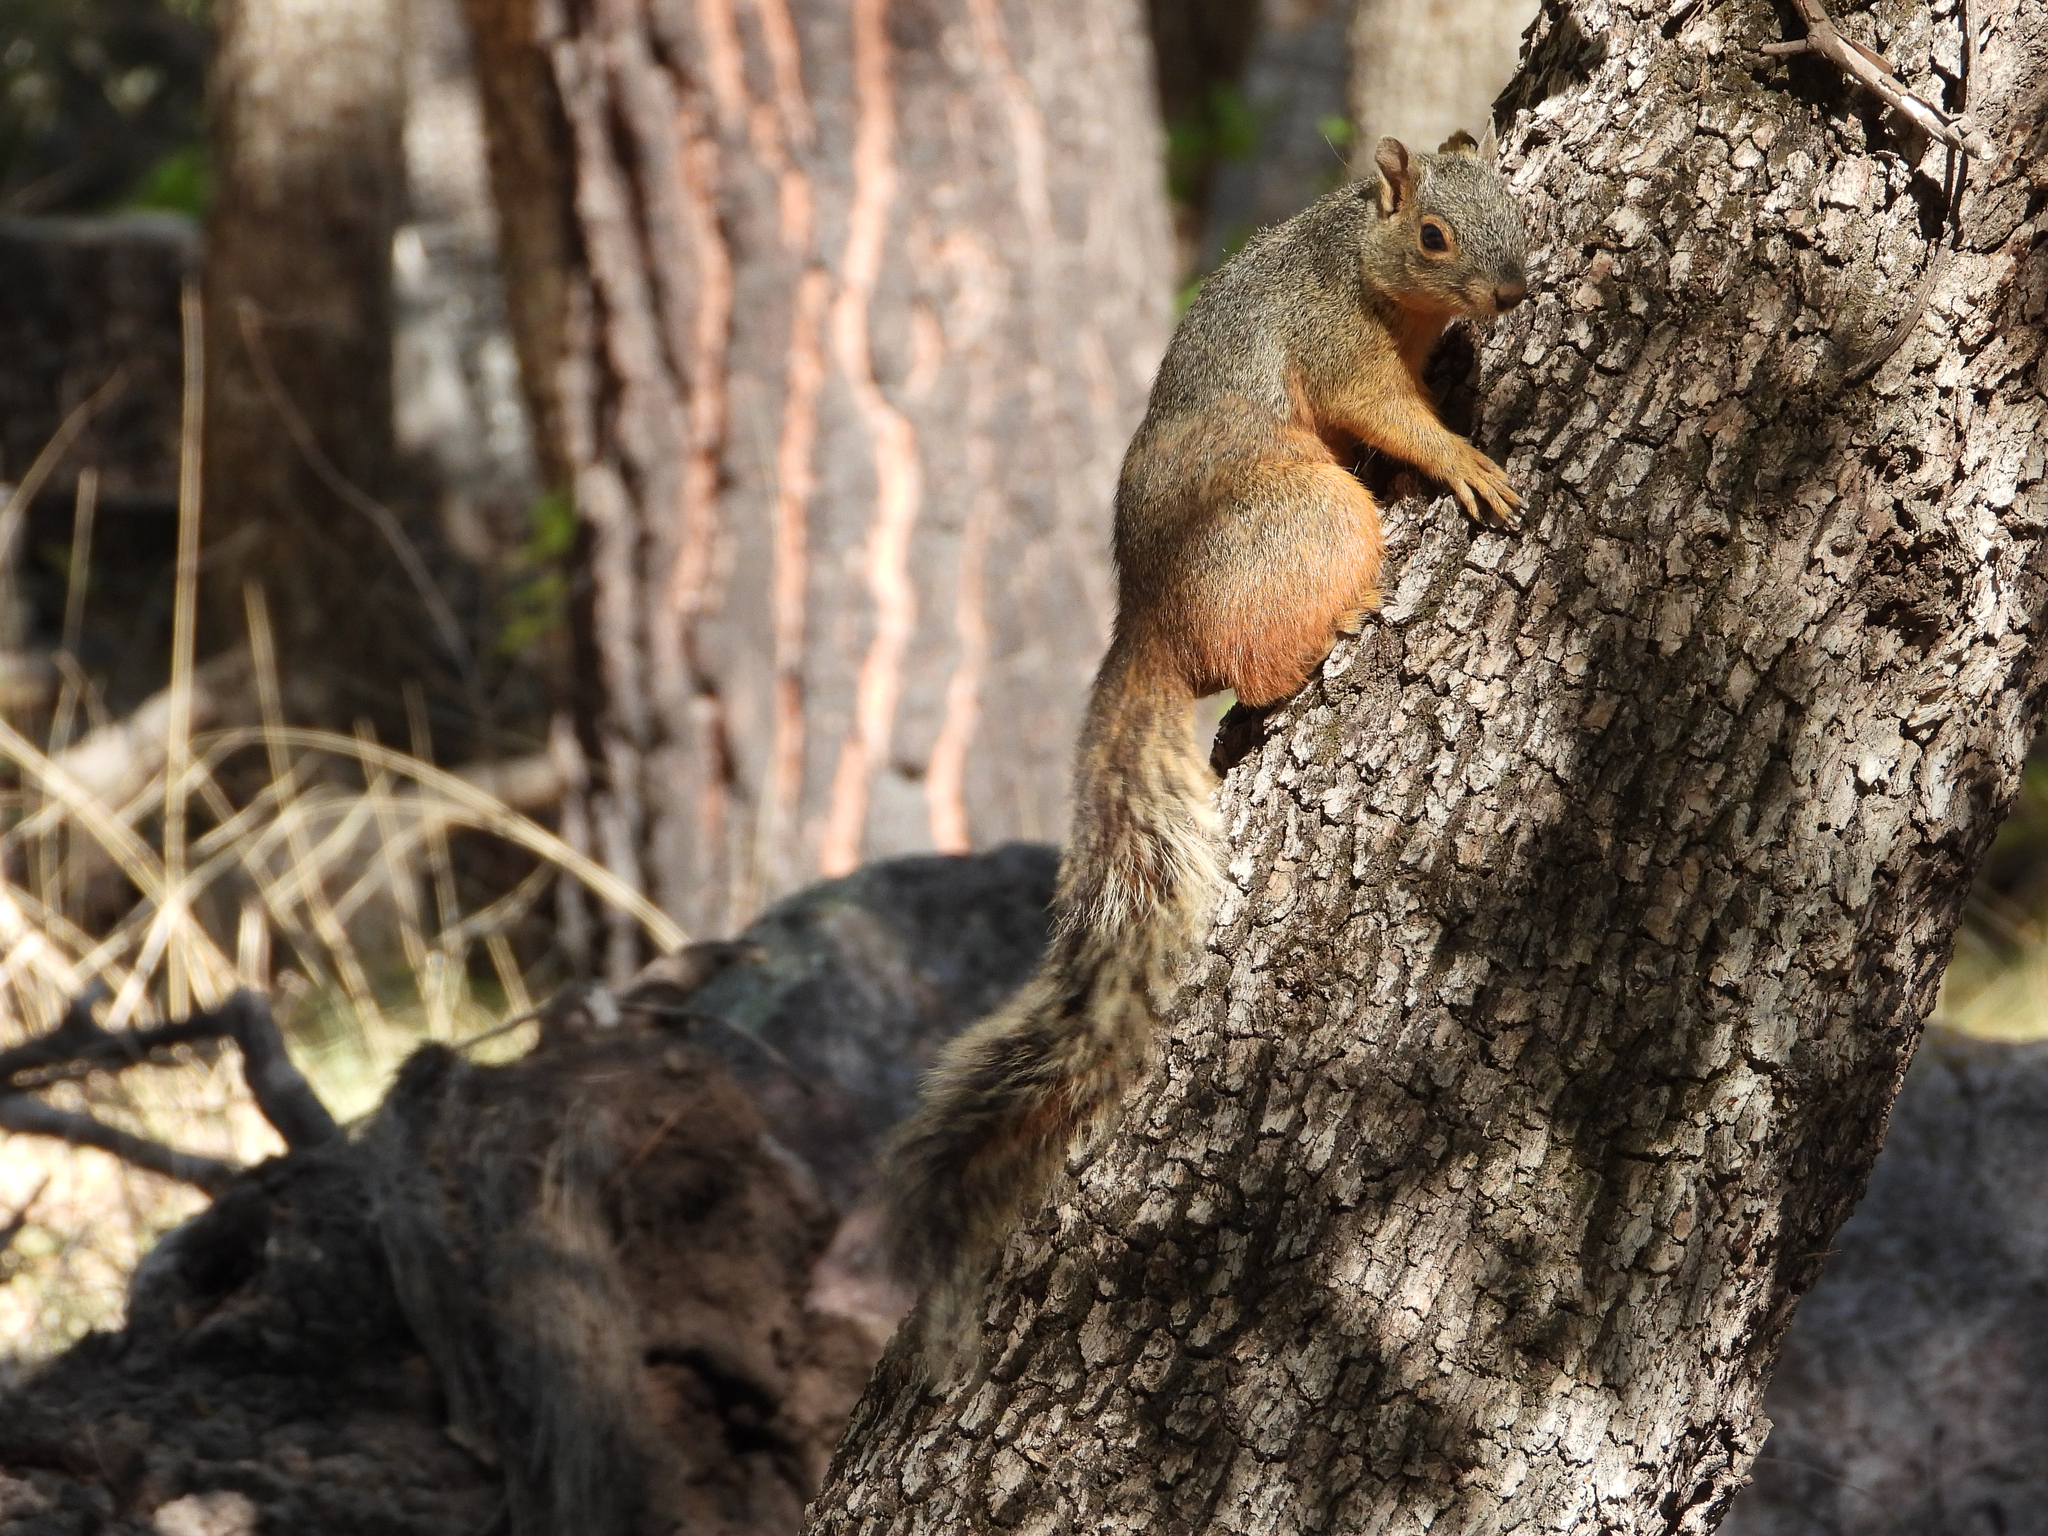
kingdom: Animalia
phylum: Chordata
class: Mammalia
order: Rodentia
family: Sciuridae
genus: Sciurus
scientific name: Sciurus nayaritensis
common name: Mexican fox squirrel
